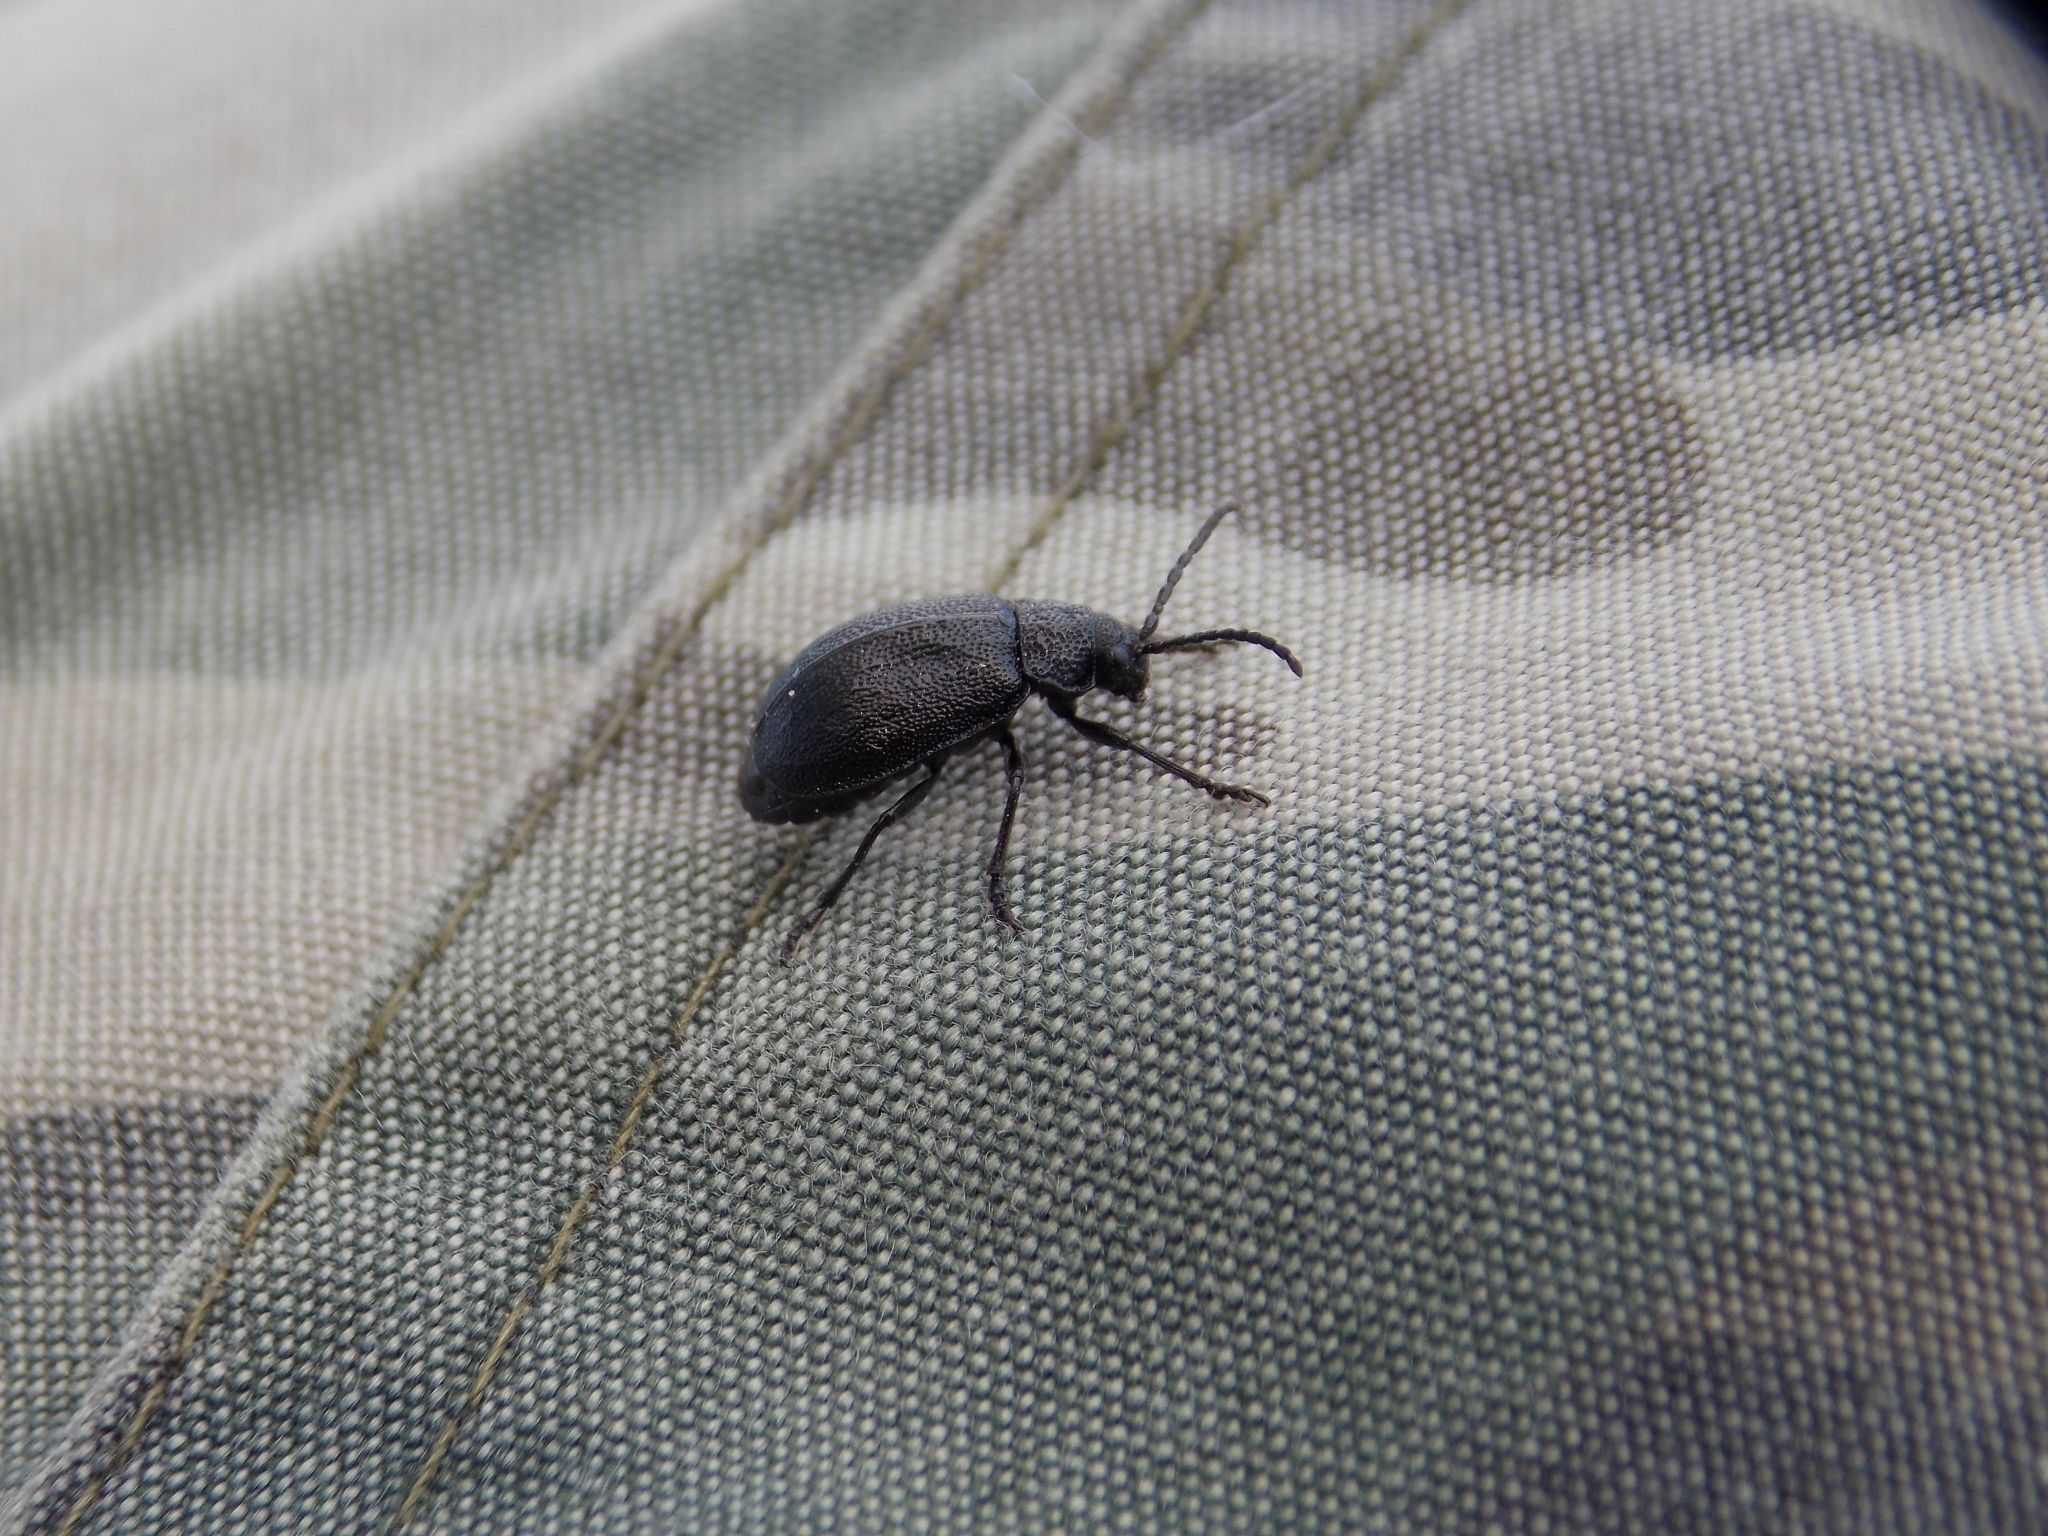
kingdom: Animalia
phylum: Arthropoda
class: Insecta
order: Coleoptera
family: Chrysomelidae
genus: Galeruca
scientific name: Galeruca tanaceti
